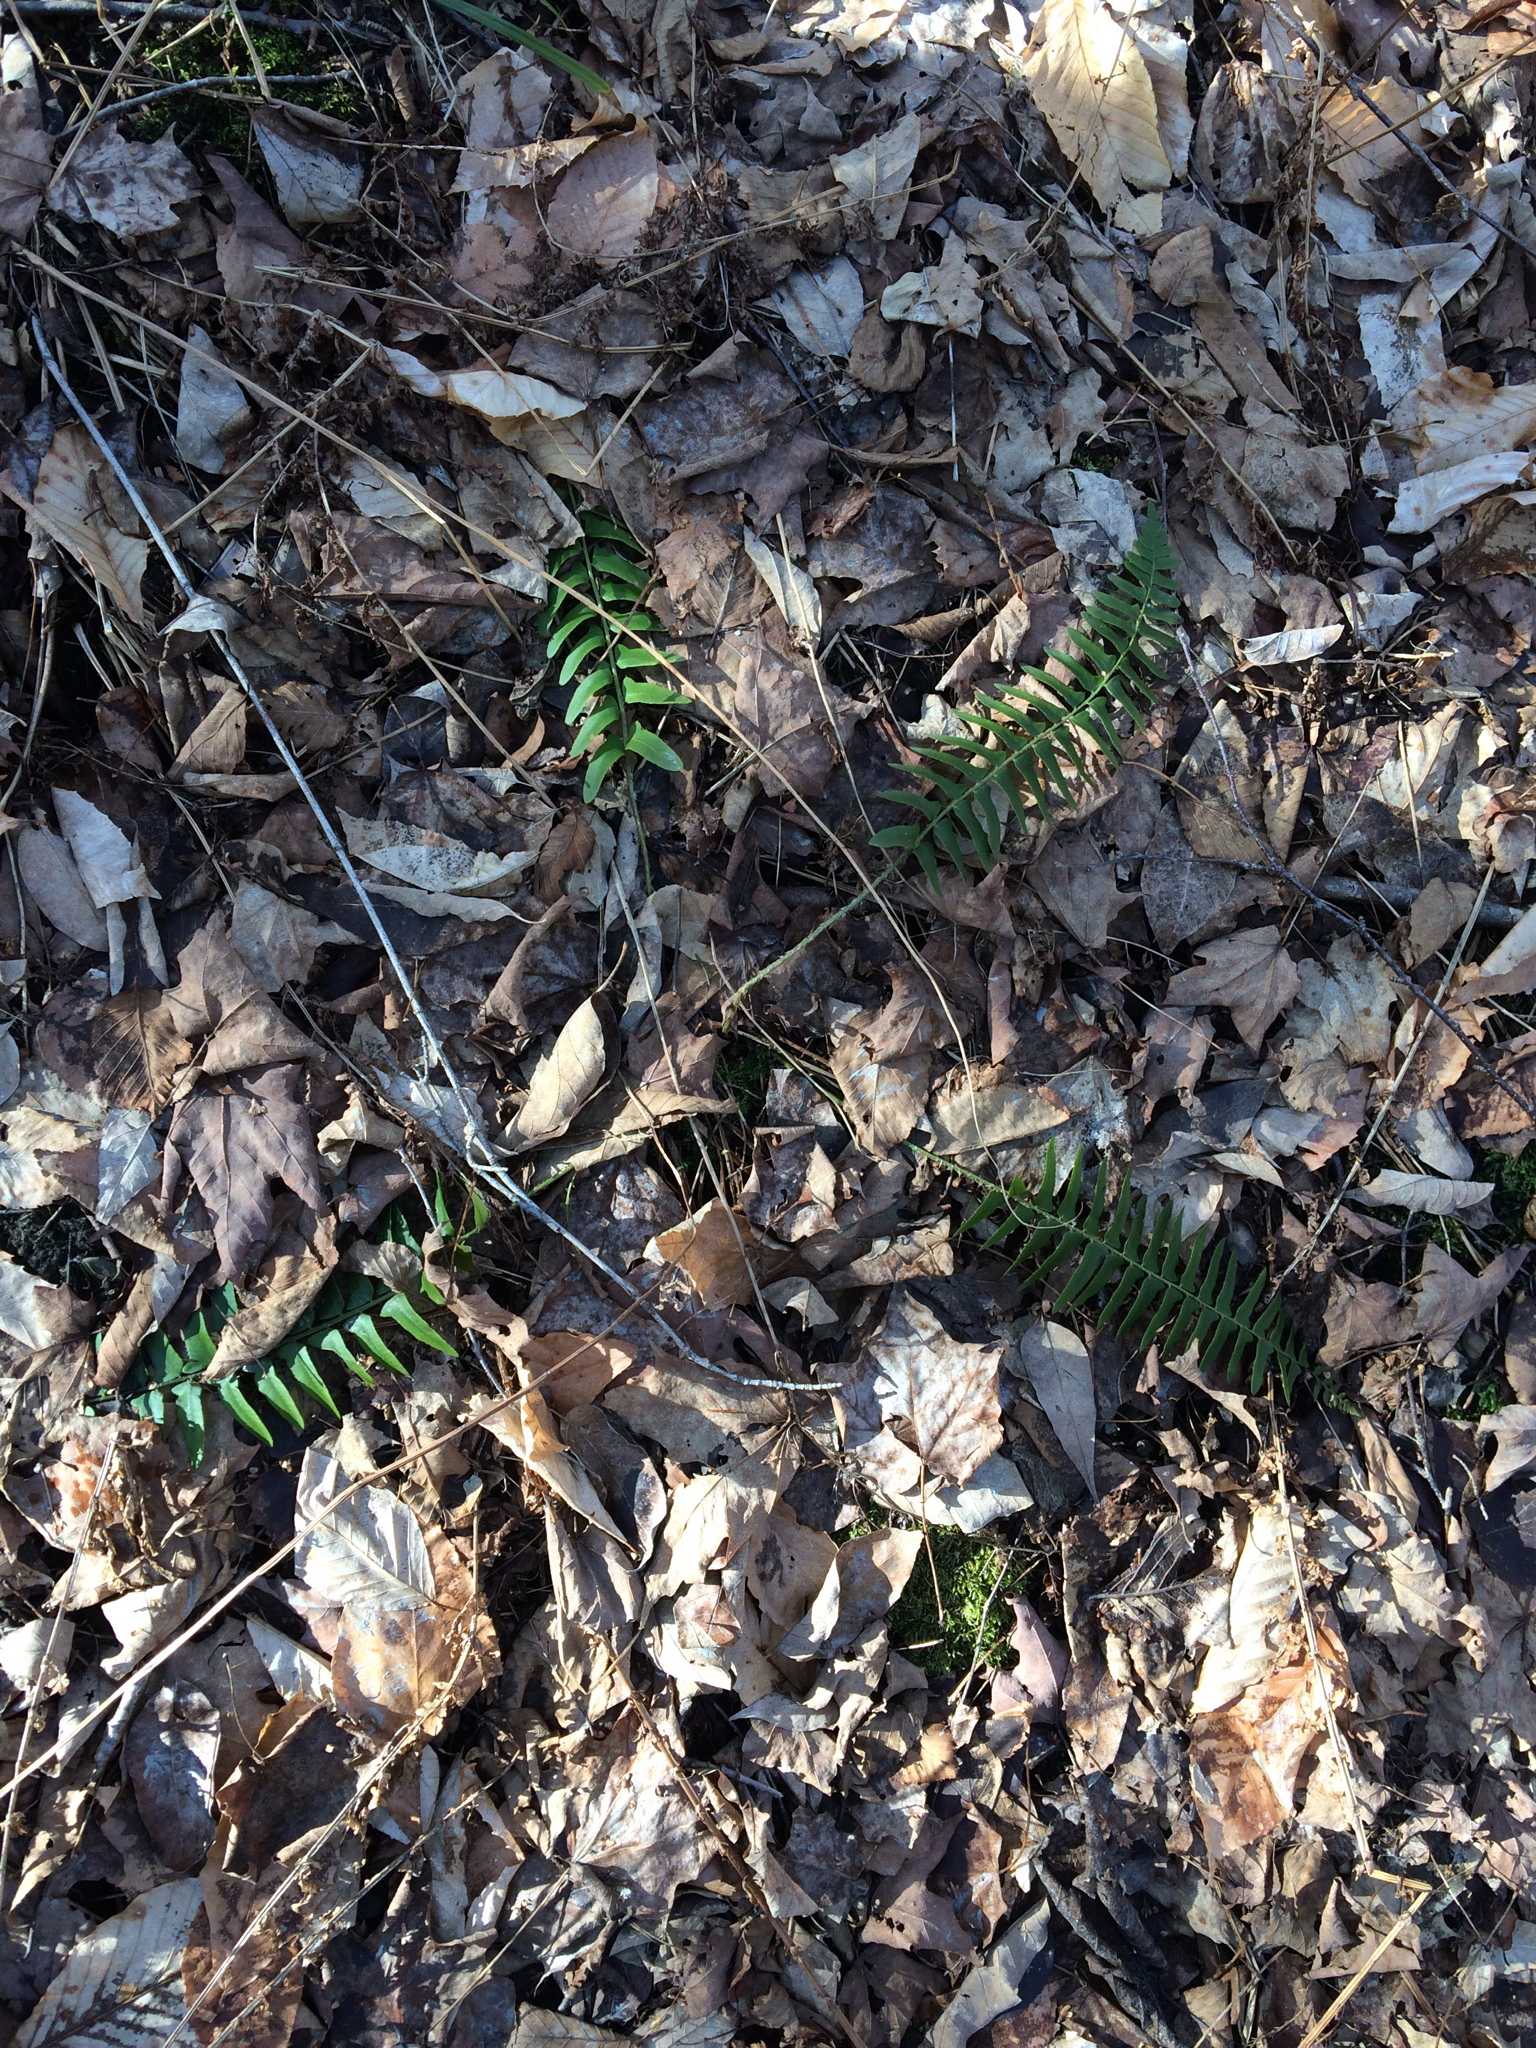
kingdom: Plantae
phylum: Tracheophyta
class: Polypodiopsida
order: Polypodiales
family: Dryopteridaceae
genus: Polystichum
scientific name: Polystichum acrostichoides
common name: Christmas fern
